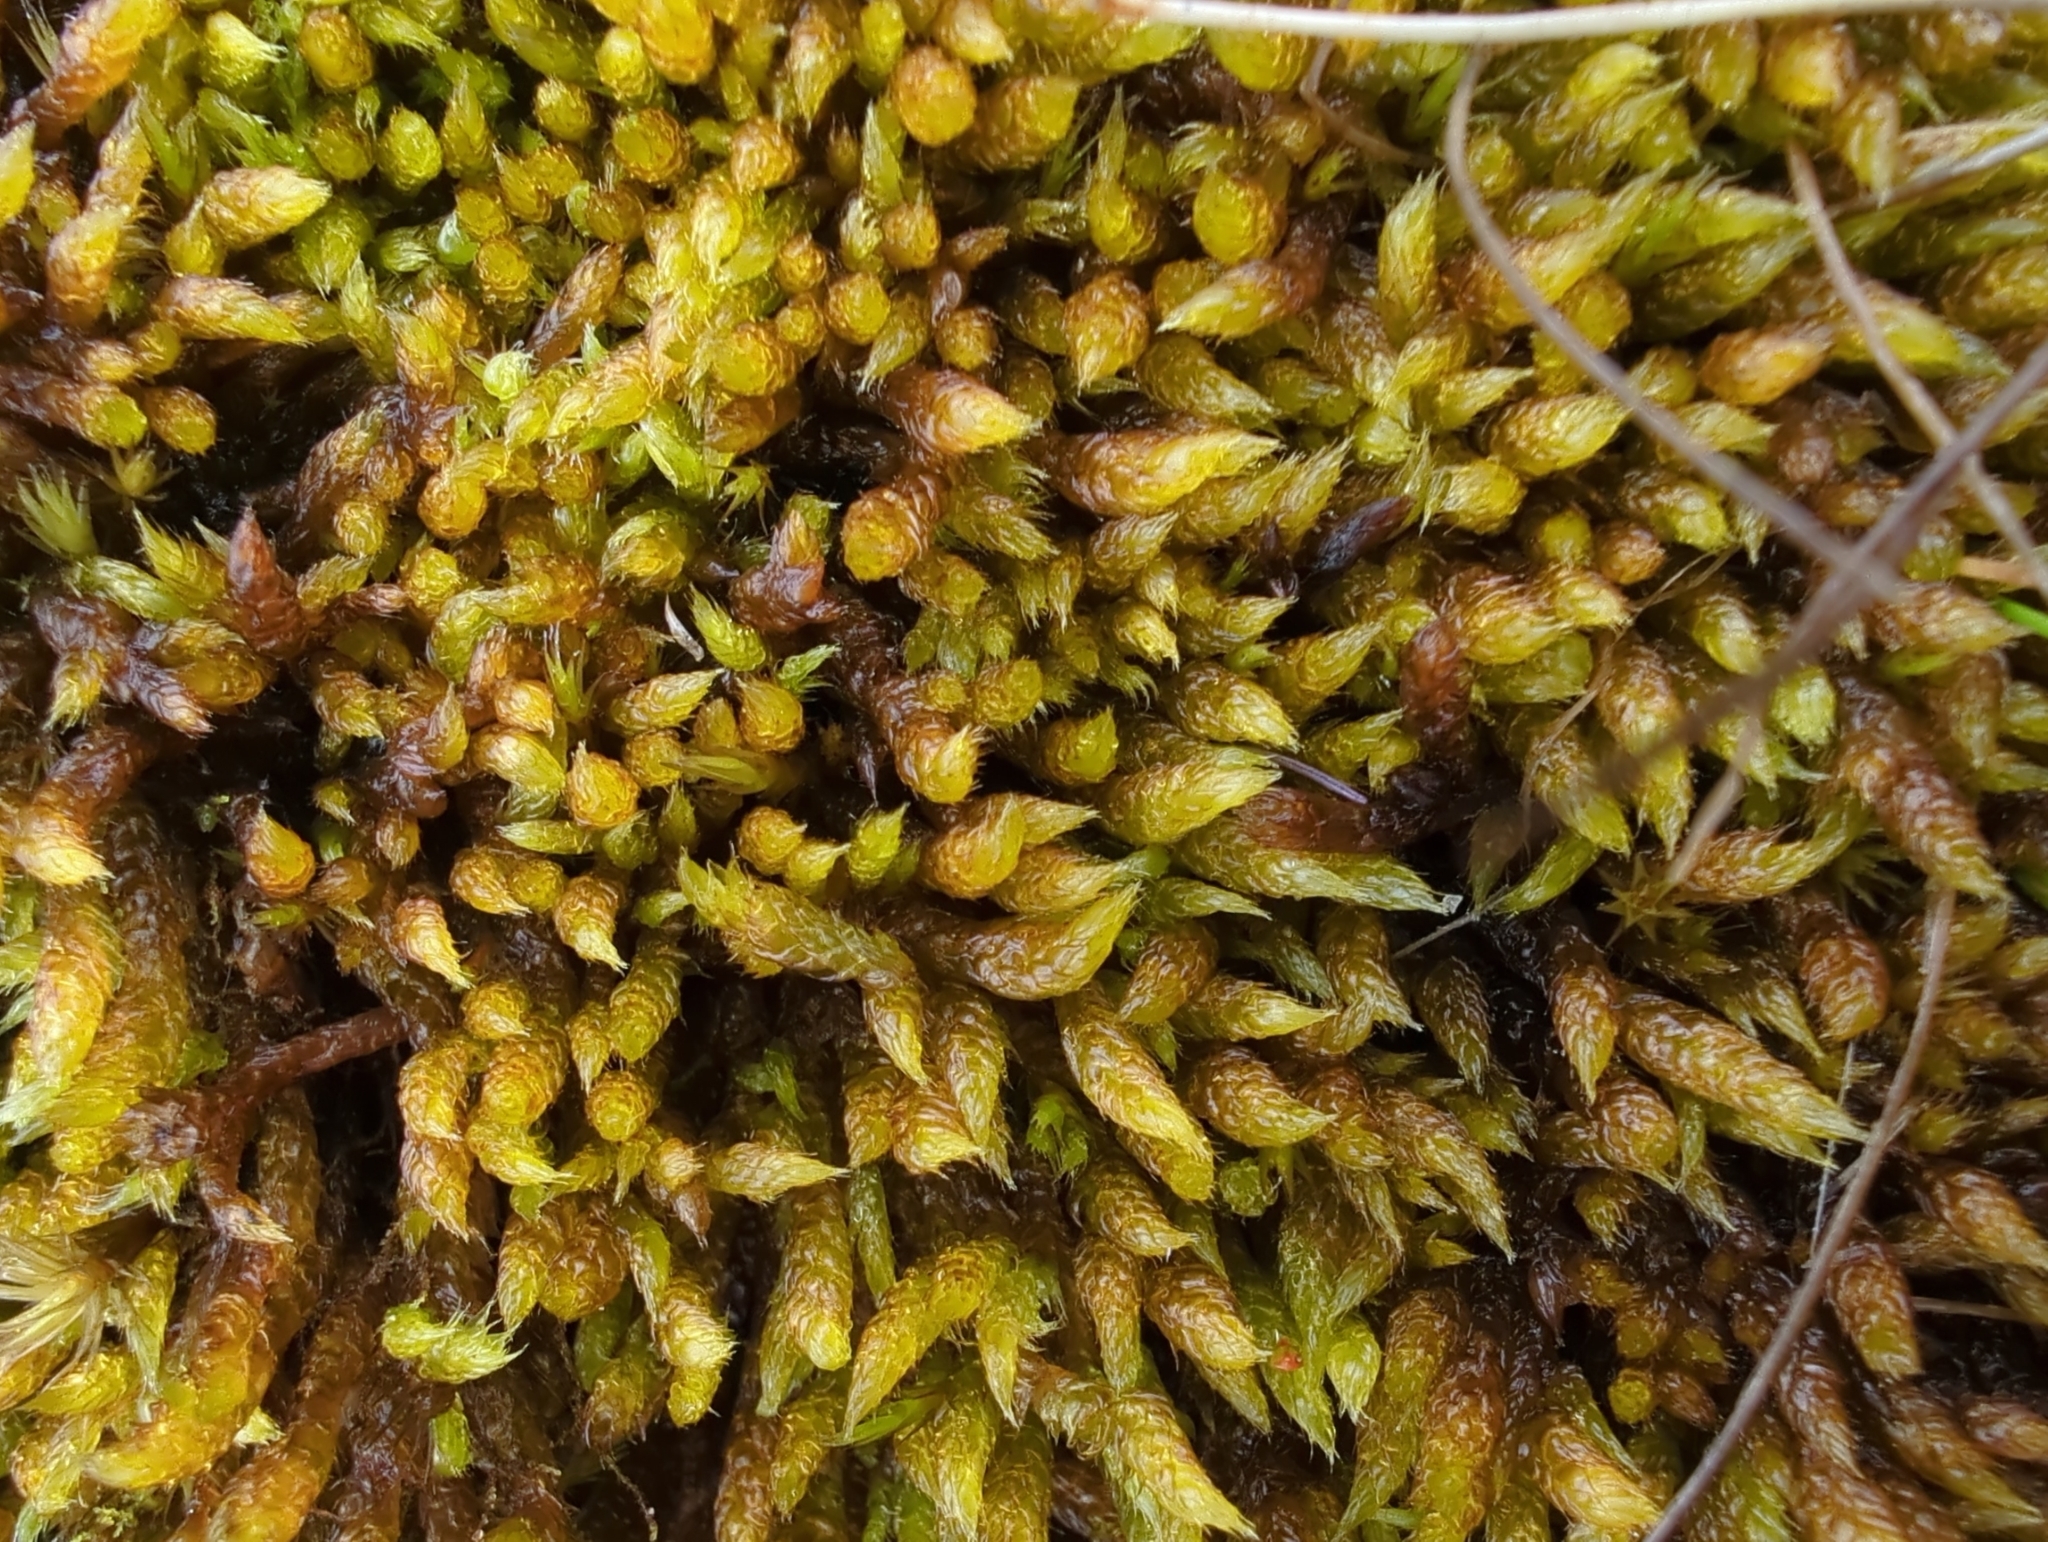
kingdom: Plantae
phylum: Bryophyta
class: Bryopsida
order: Hypnales
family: Hypnaceae
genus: Hypnum
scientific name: Hypnum cupressiforme
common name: Cypress-leaved plait-moss
